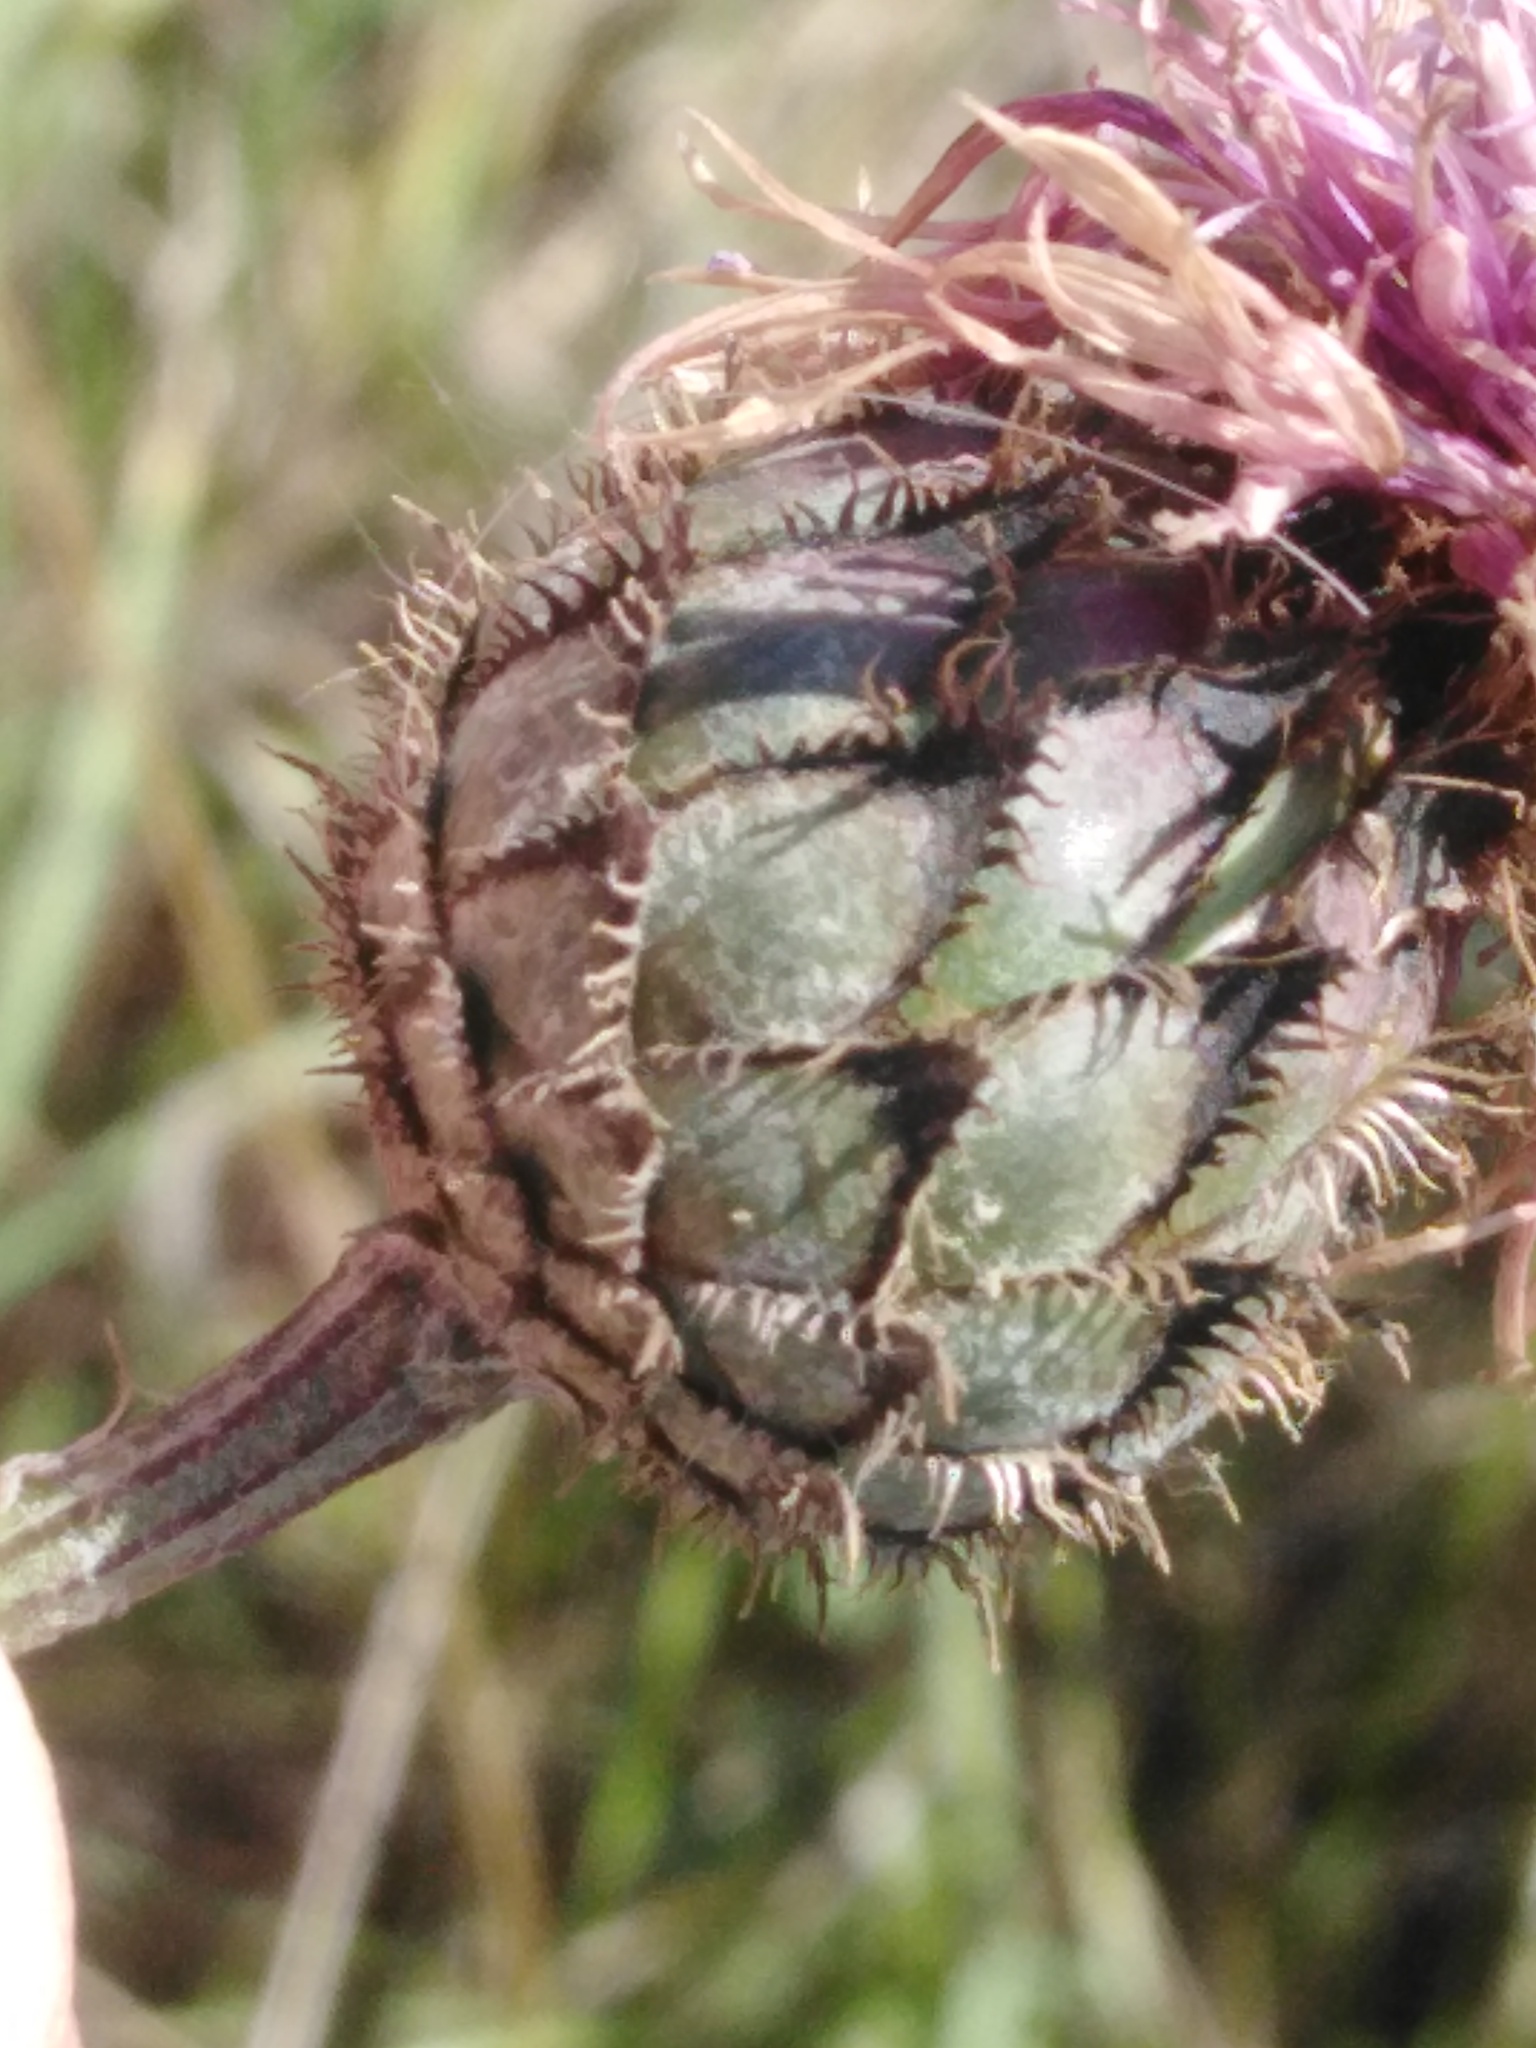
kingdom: Plantae
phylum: Tracheophyta
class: Magnoliopsida
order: Asterales
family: Asteraceae
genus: Centaurea
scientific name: Centaurea scabiosa
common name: Greater knapweed
